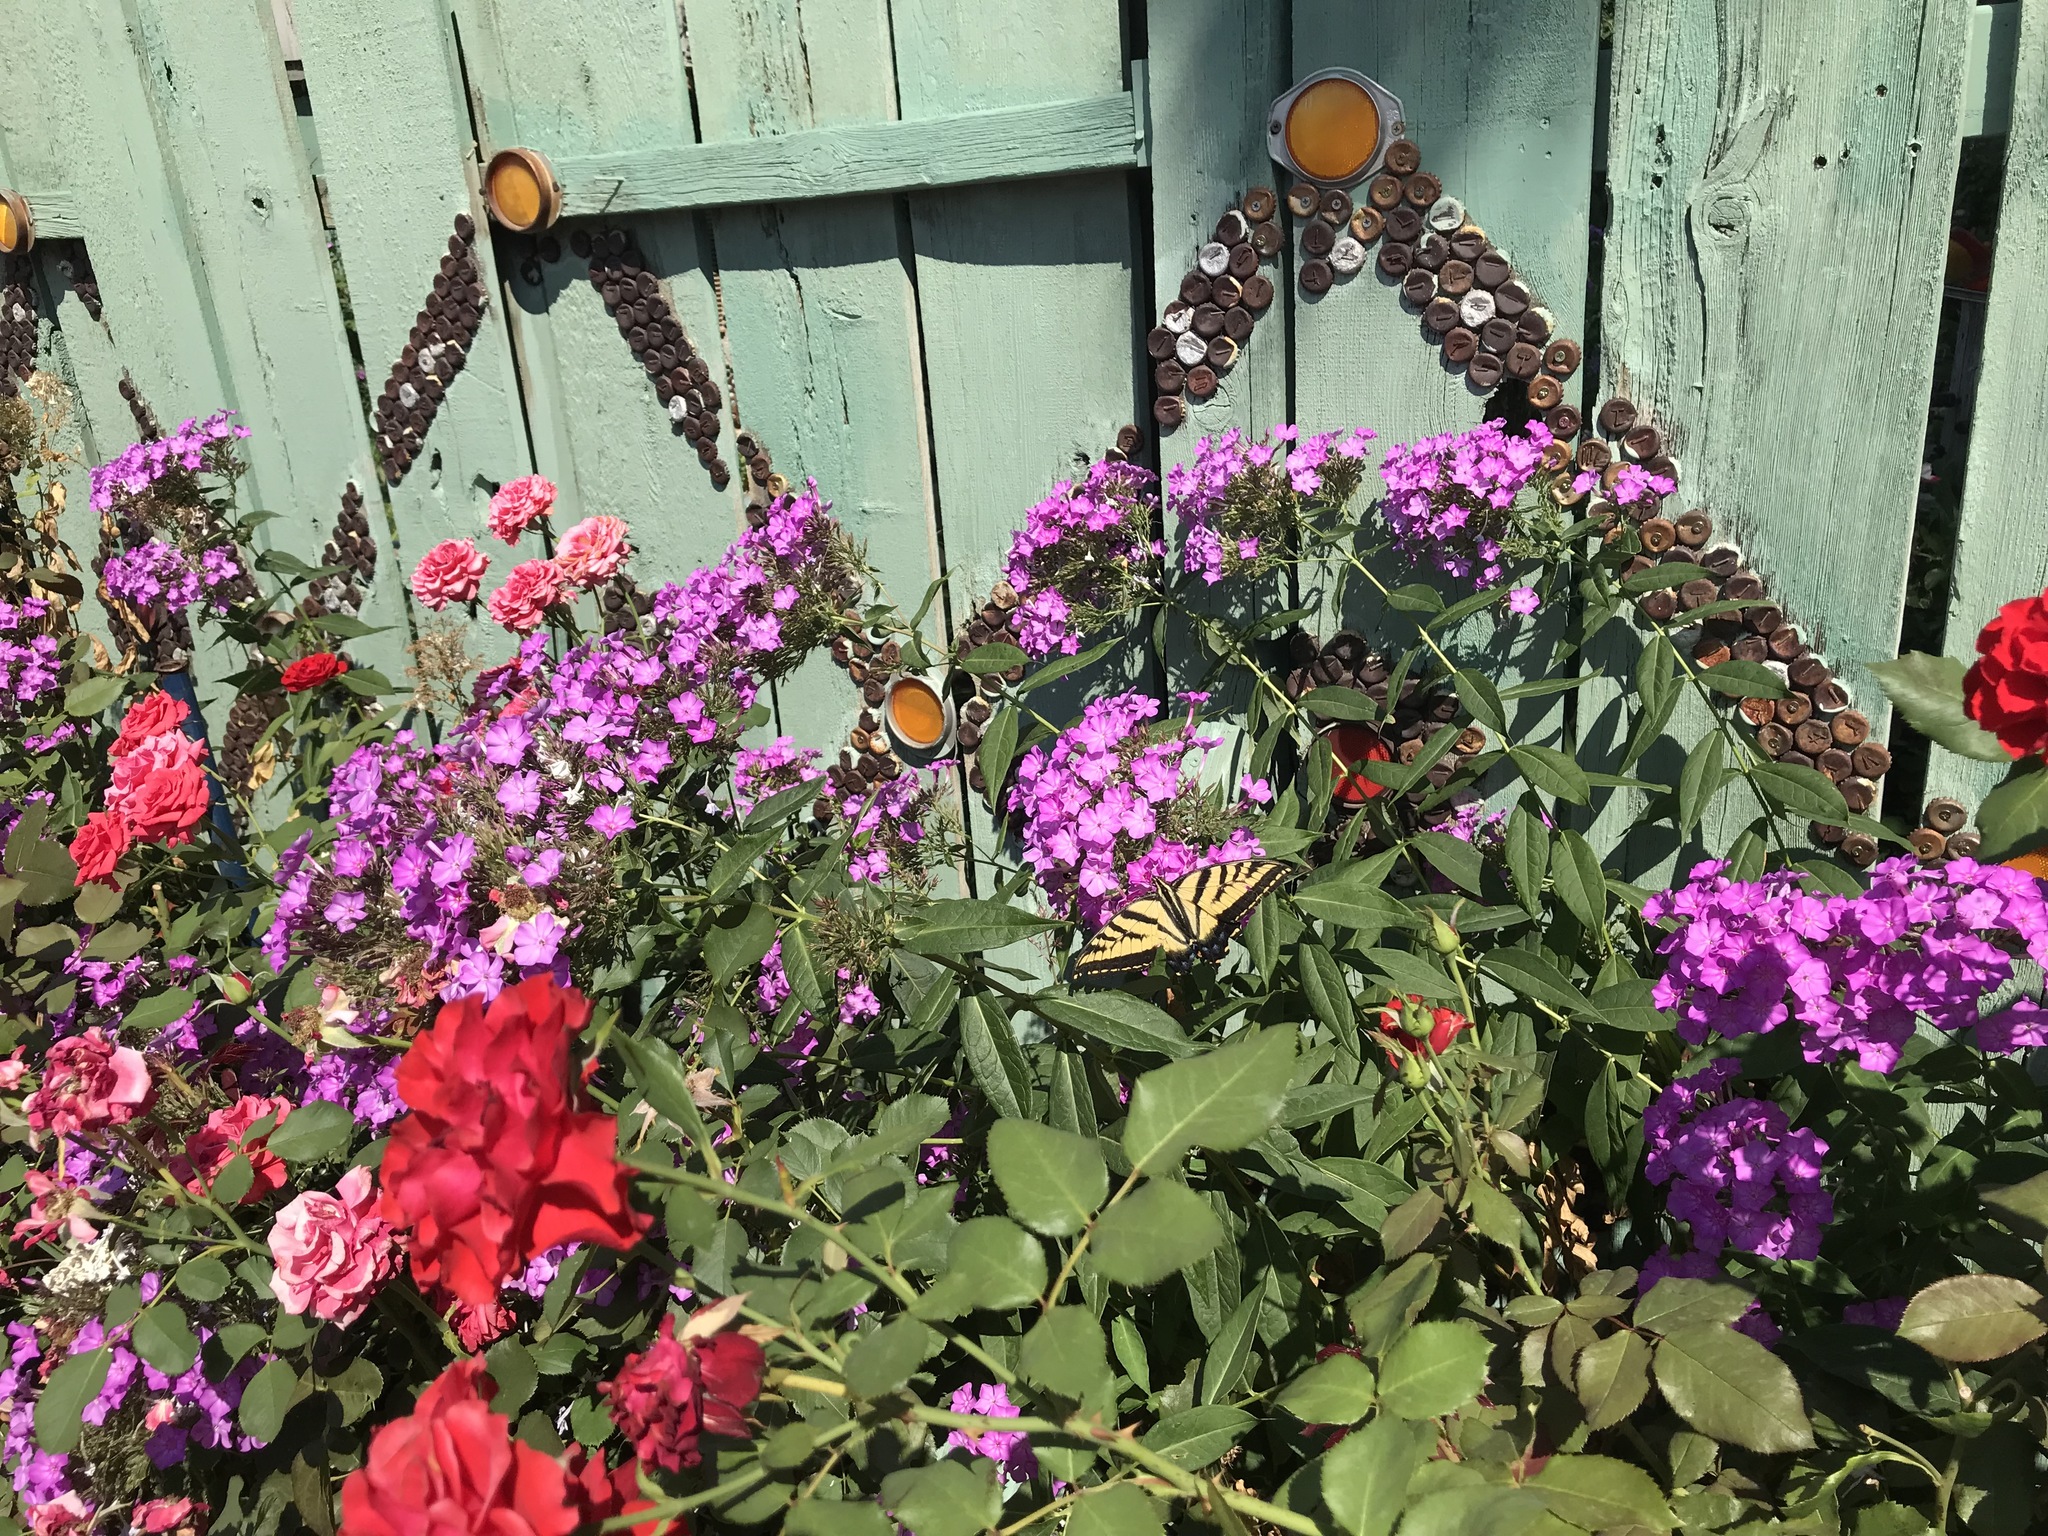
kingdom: Animalia
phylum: Arthropoda
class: Insecta
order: Lepidoptera
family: Papilionidae
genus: Papilio
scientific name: Papilio multicaudata
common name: Two-tailed tiger swallowtail
